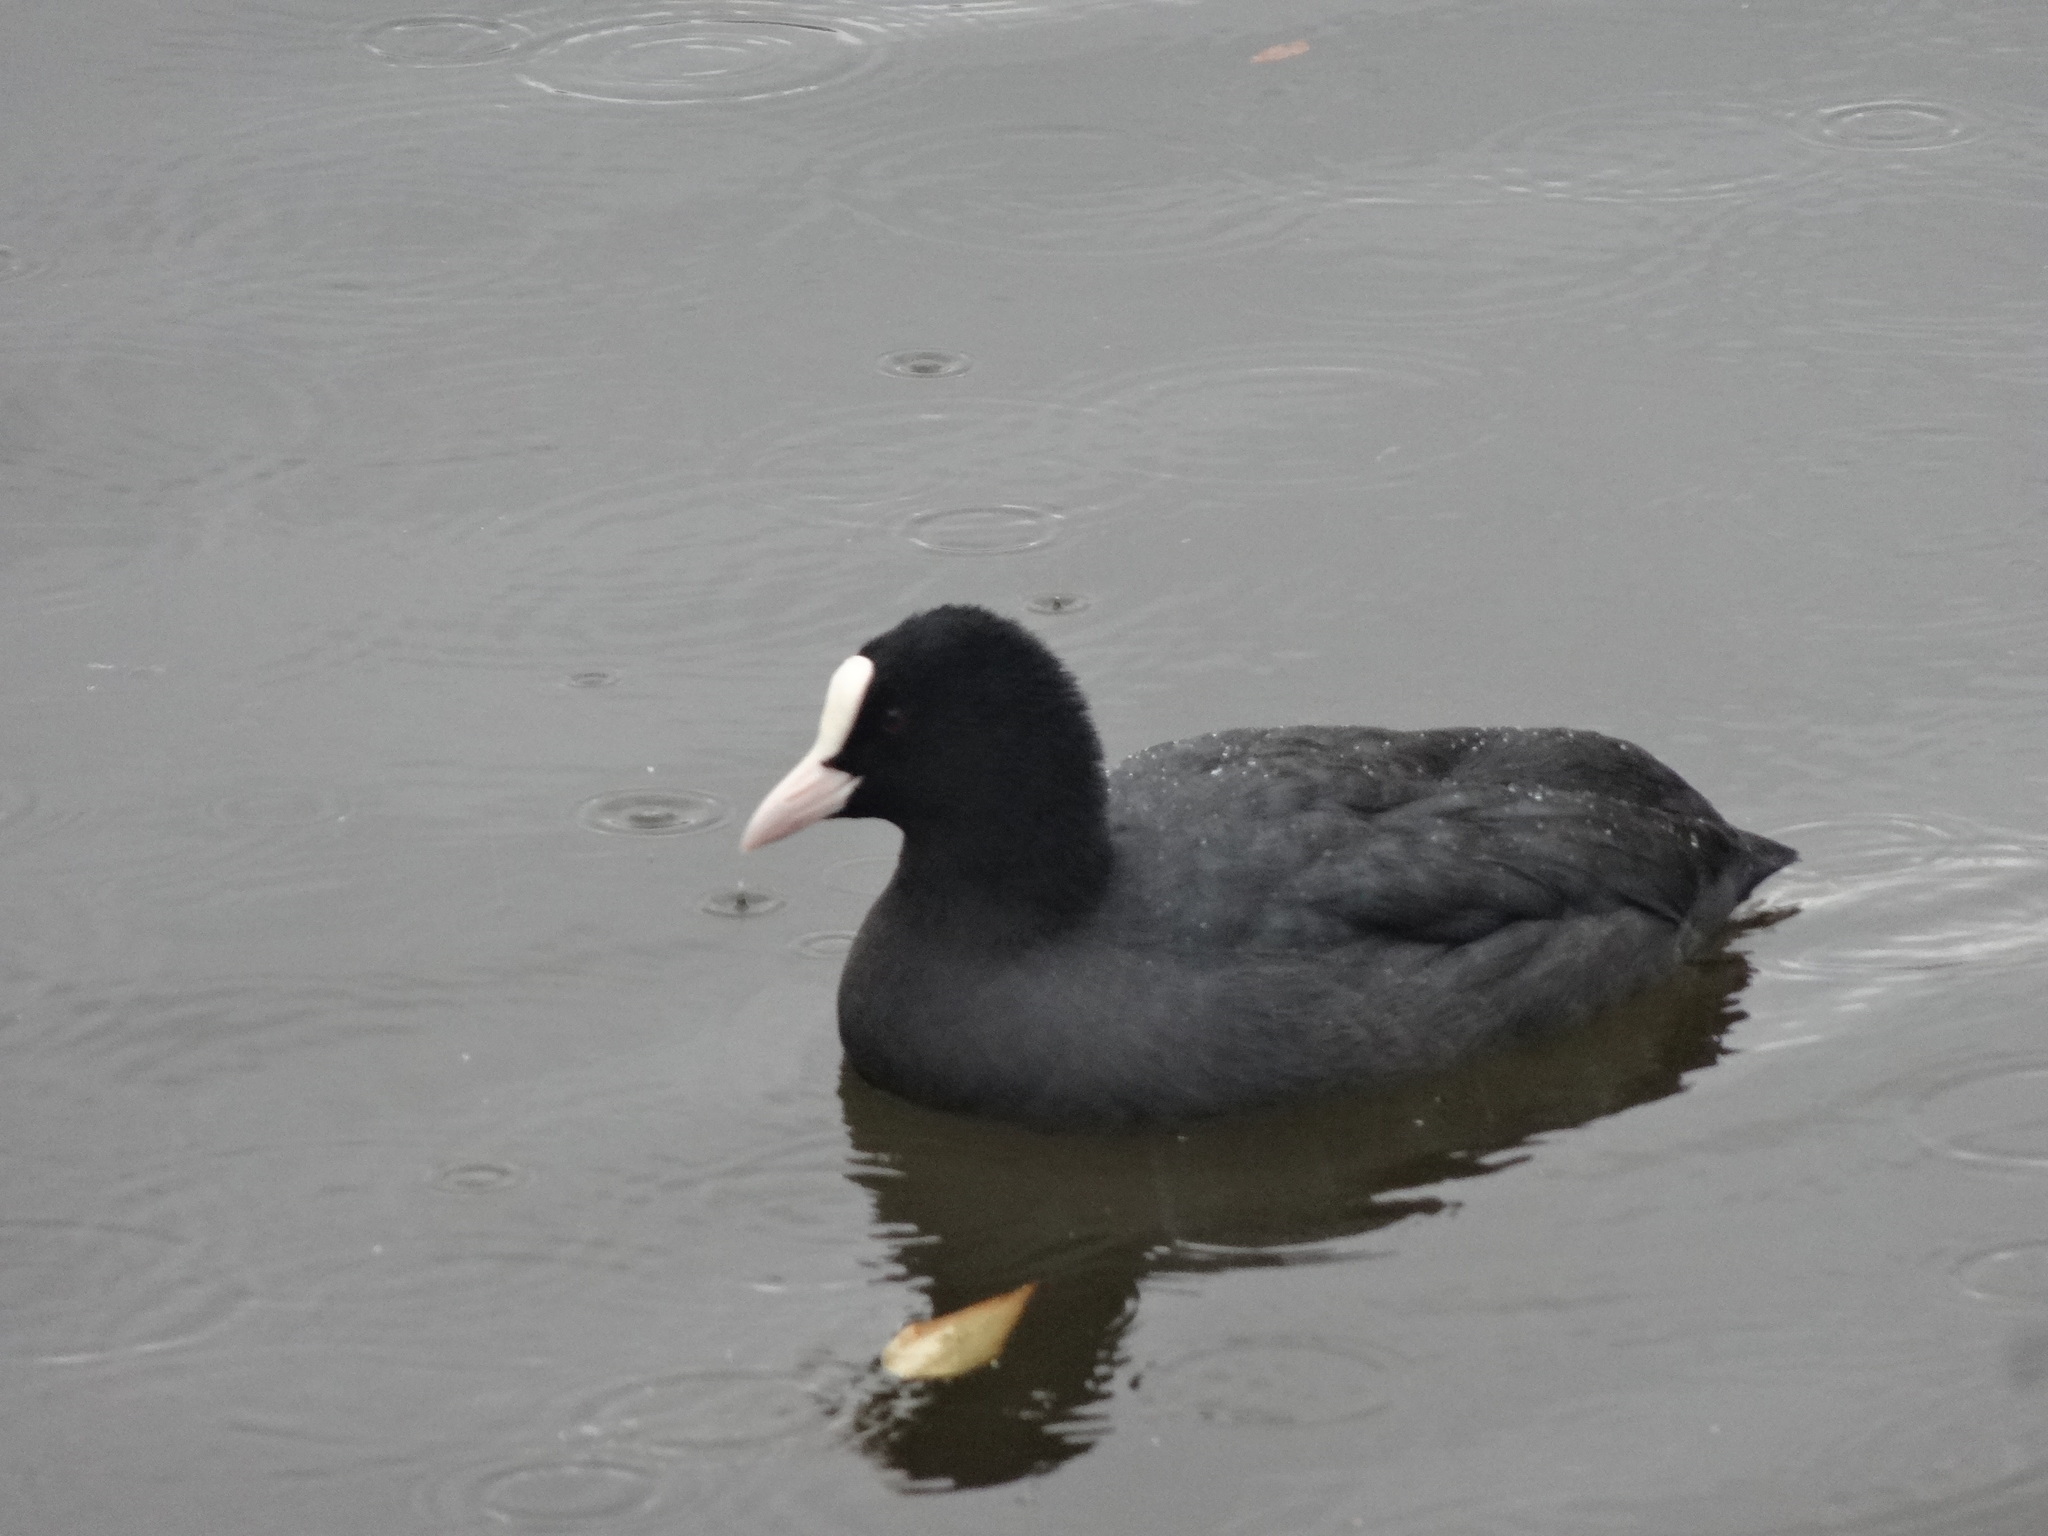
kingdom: Animalia
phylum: Chordata
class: Aves
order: Gruiformes
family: Rallidae
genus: Fulica
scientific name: Fulica atra
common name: Eurasian coot
